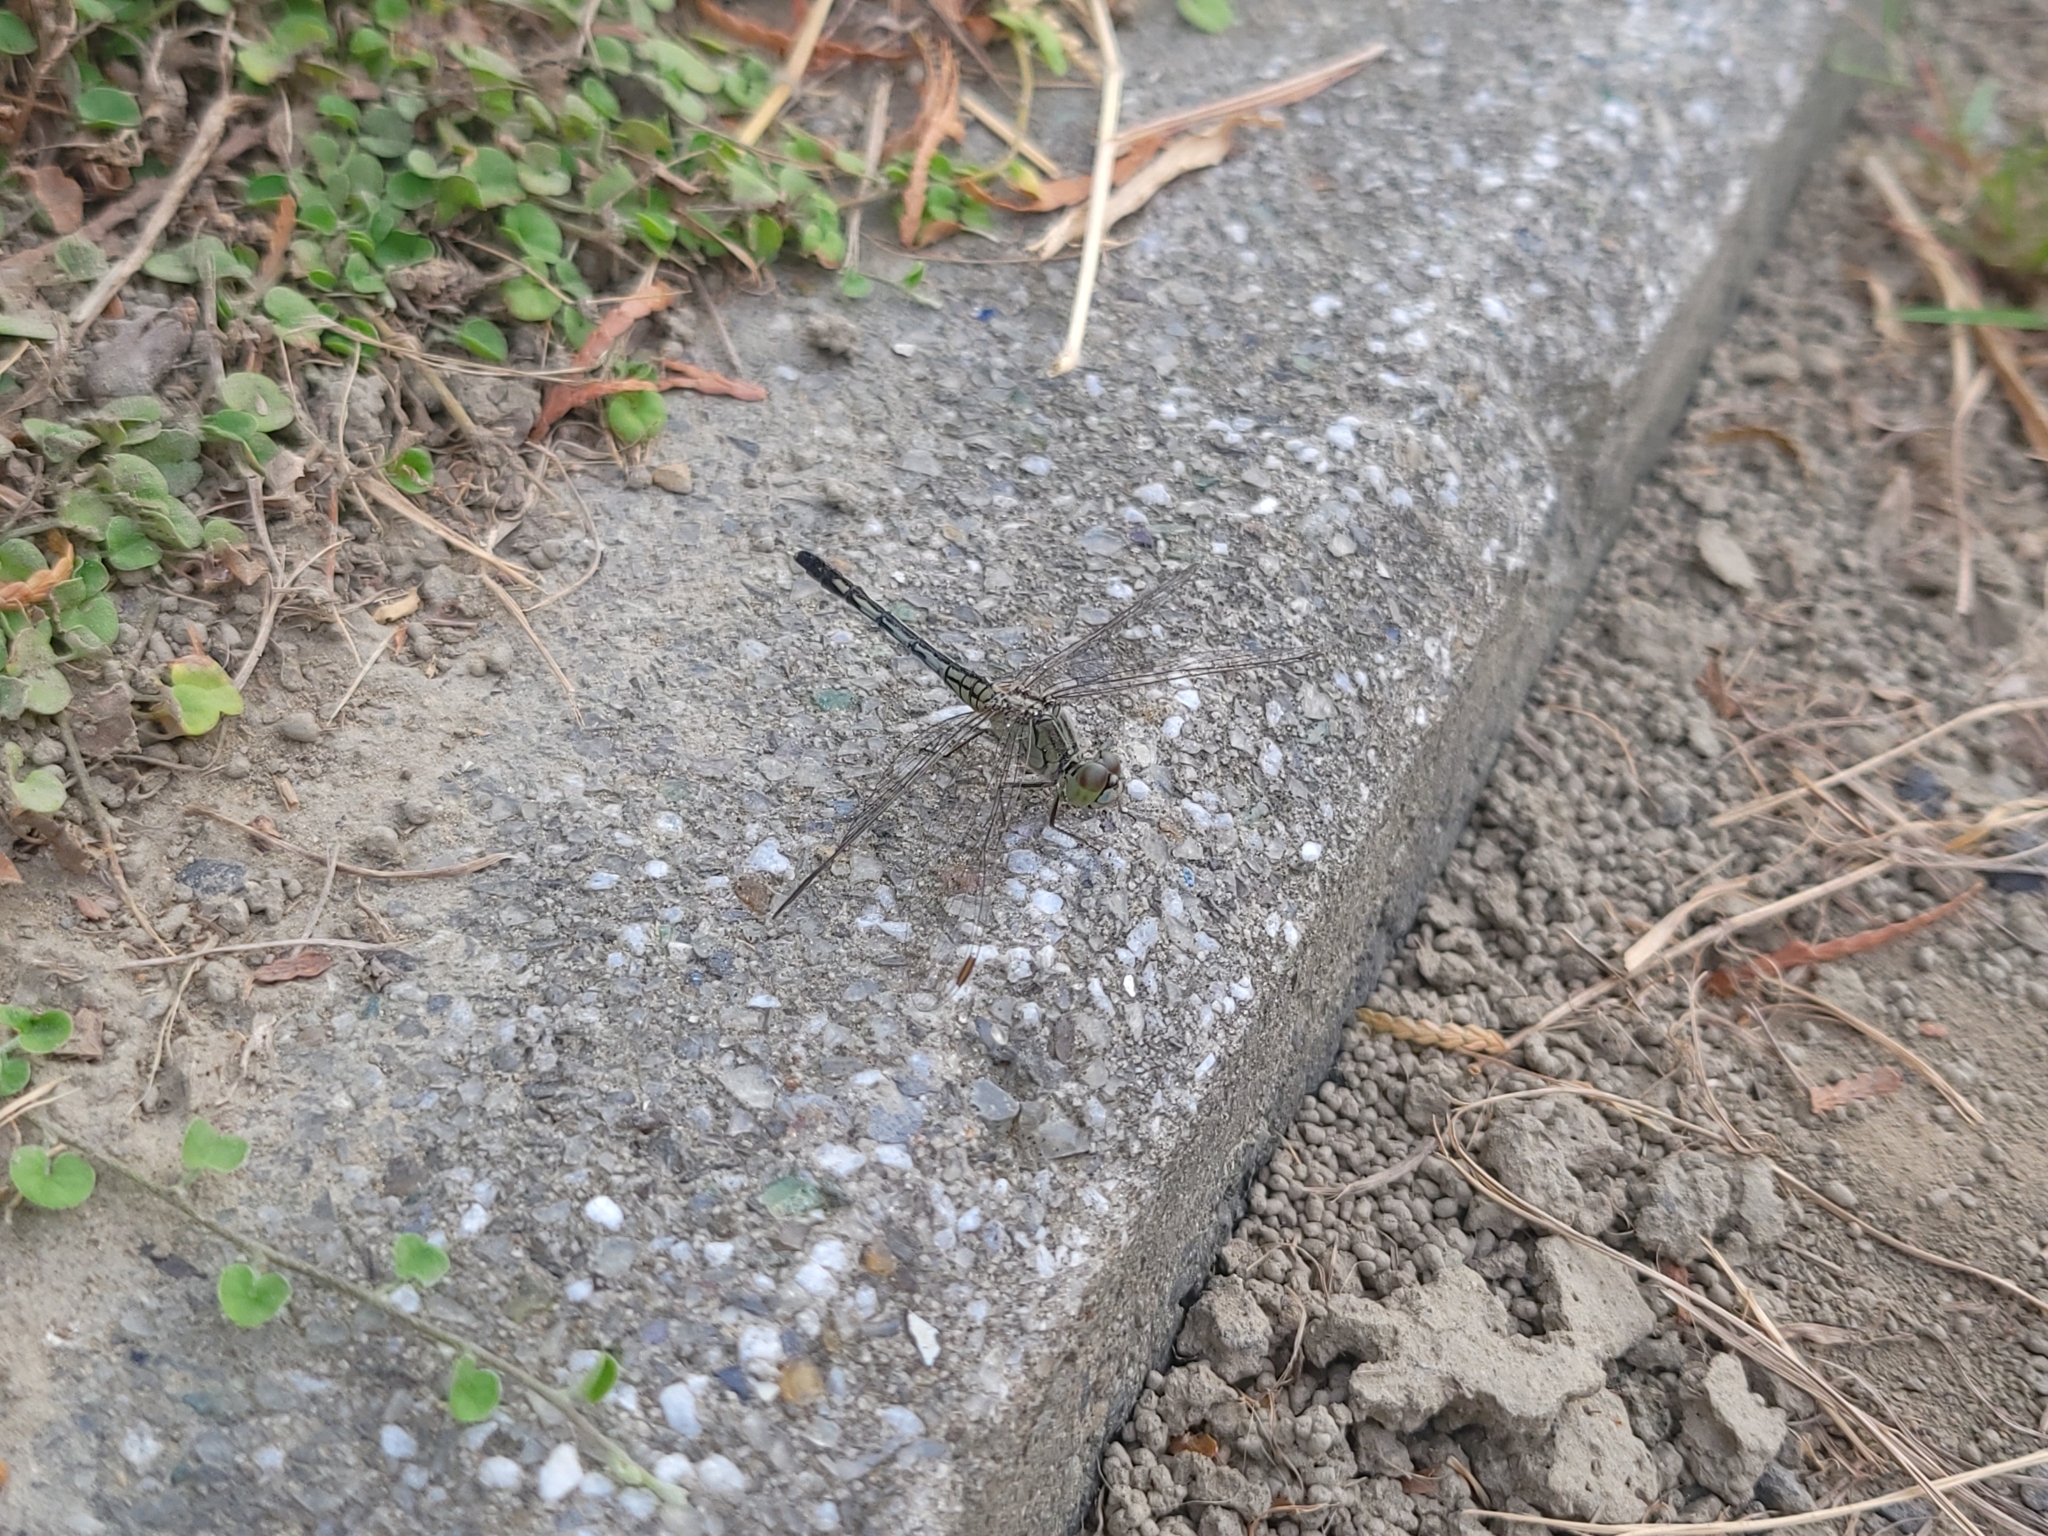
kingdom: Animalia
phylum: Arthropoda
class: Insecta
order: Odonata
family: Libellulidae
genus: Diplacodes
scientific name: Diplacodes trivialis
